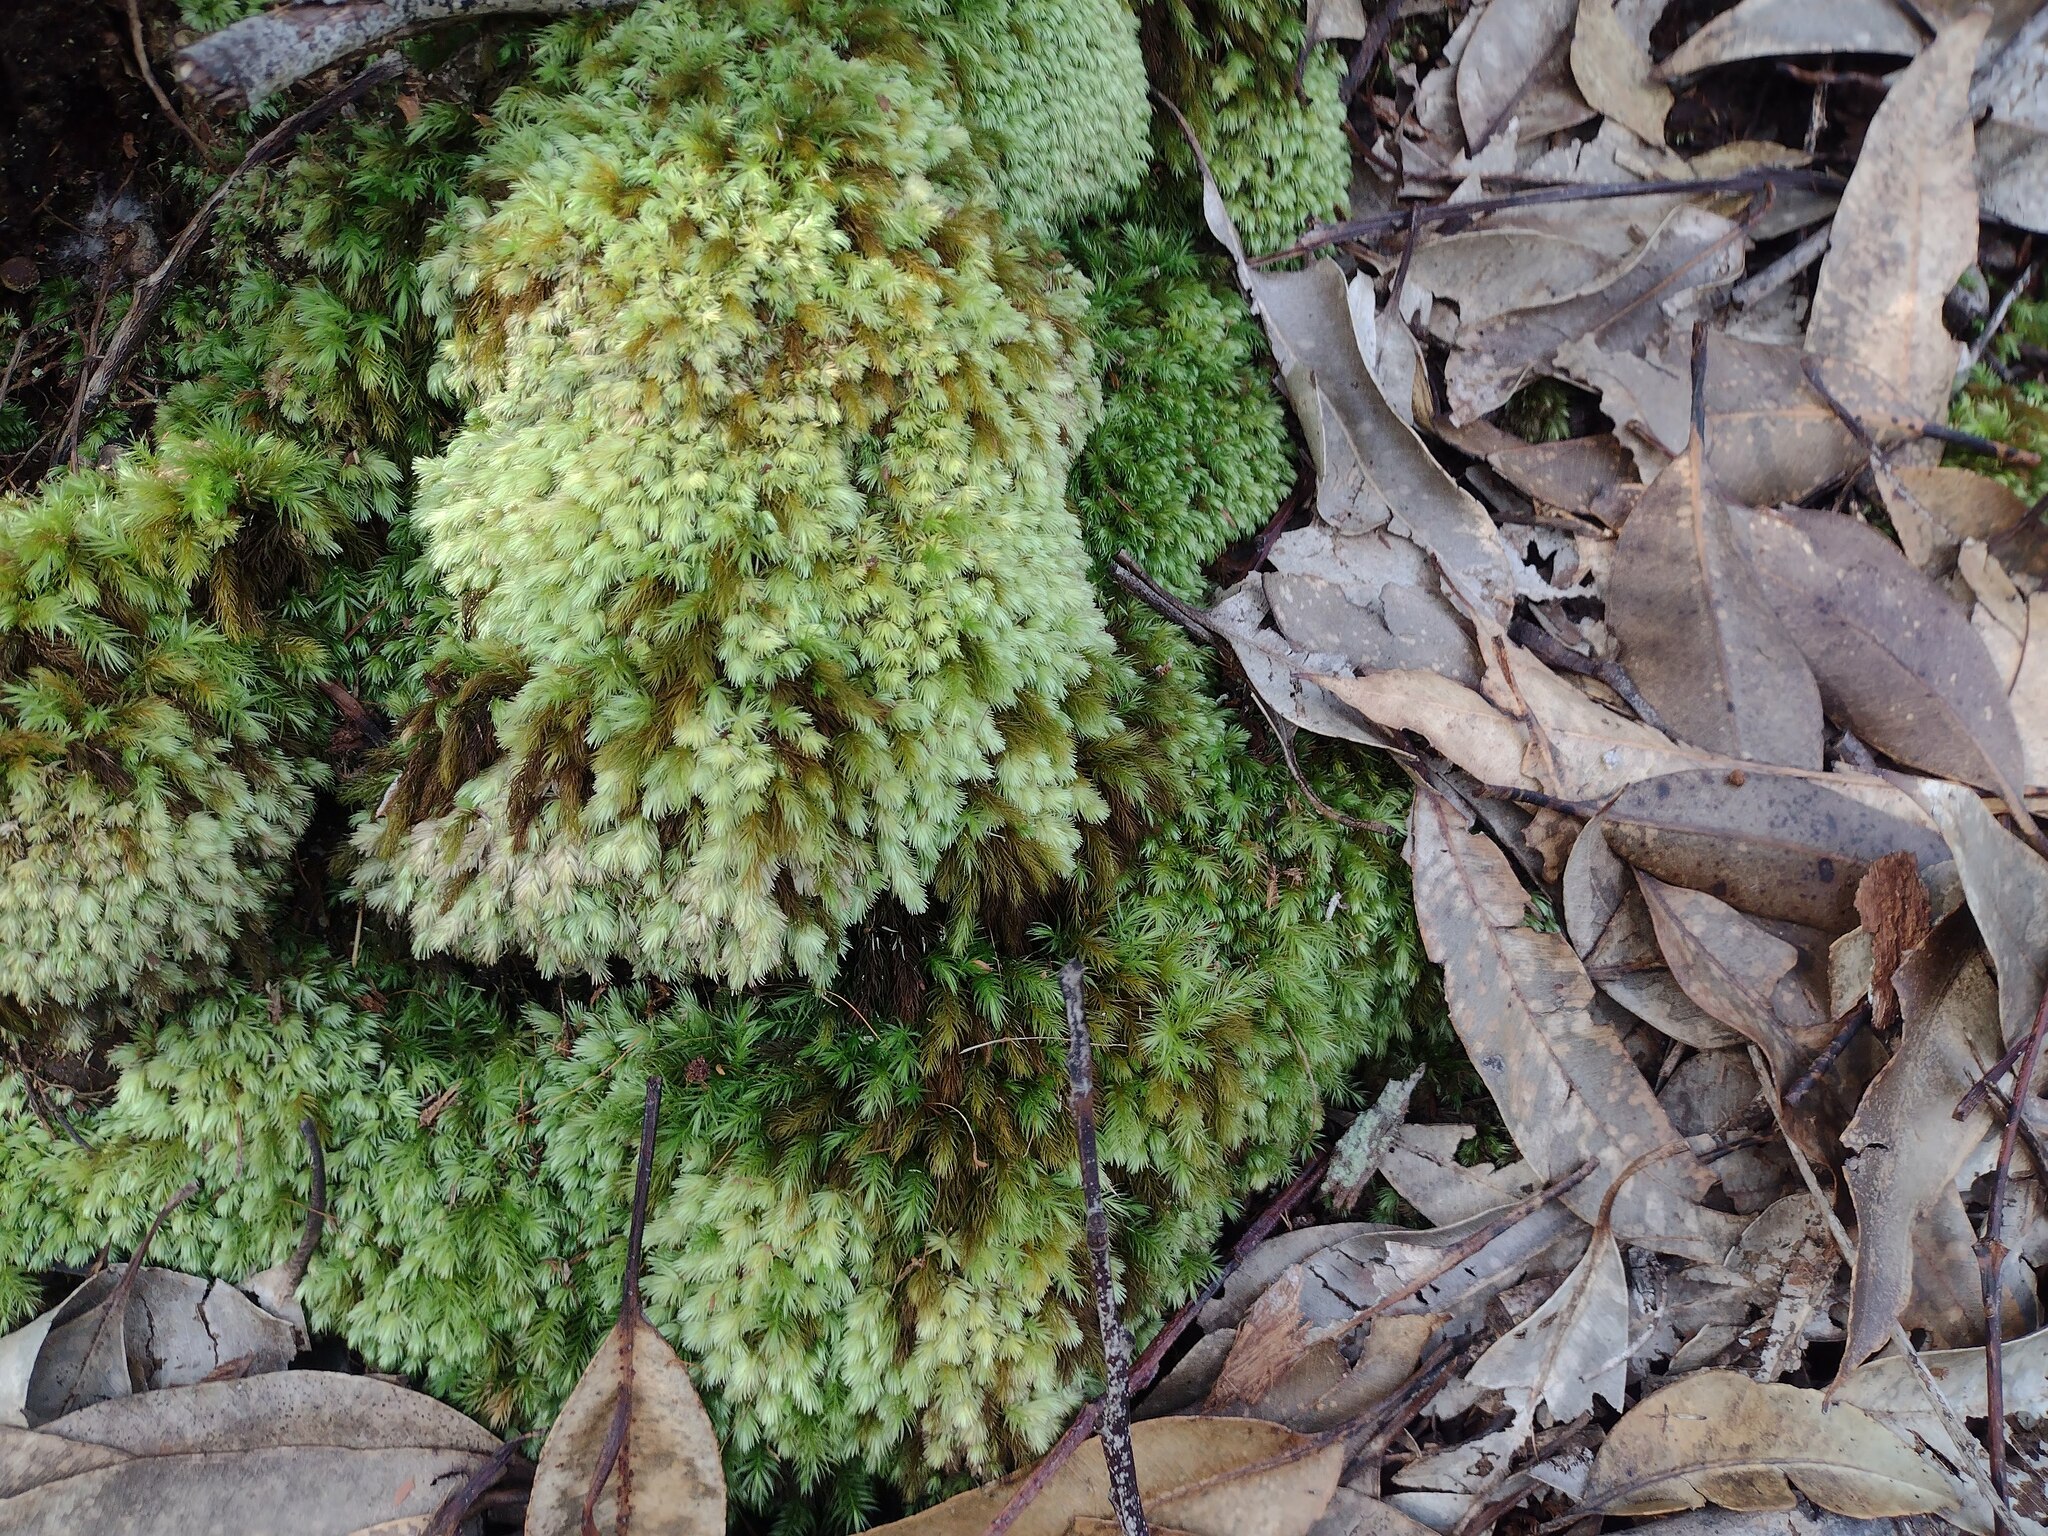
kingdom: Plantae
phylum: Bryophyta
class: Bryopsida
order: Rhizogoniales
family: Calomniaceae
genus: Pyrrhobryum
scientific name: Pyrrhobryum spiniforme
